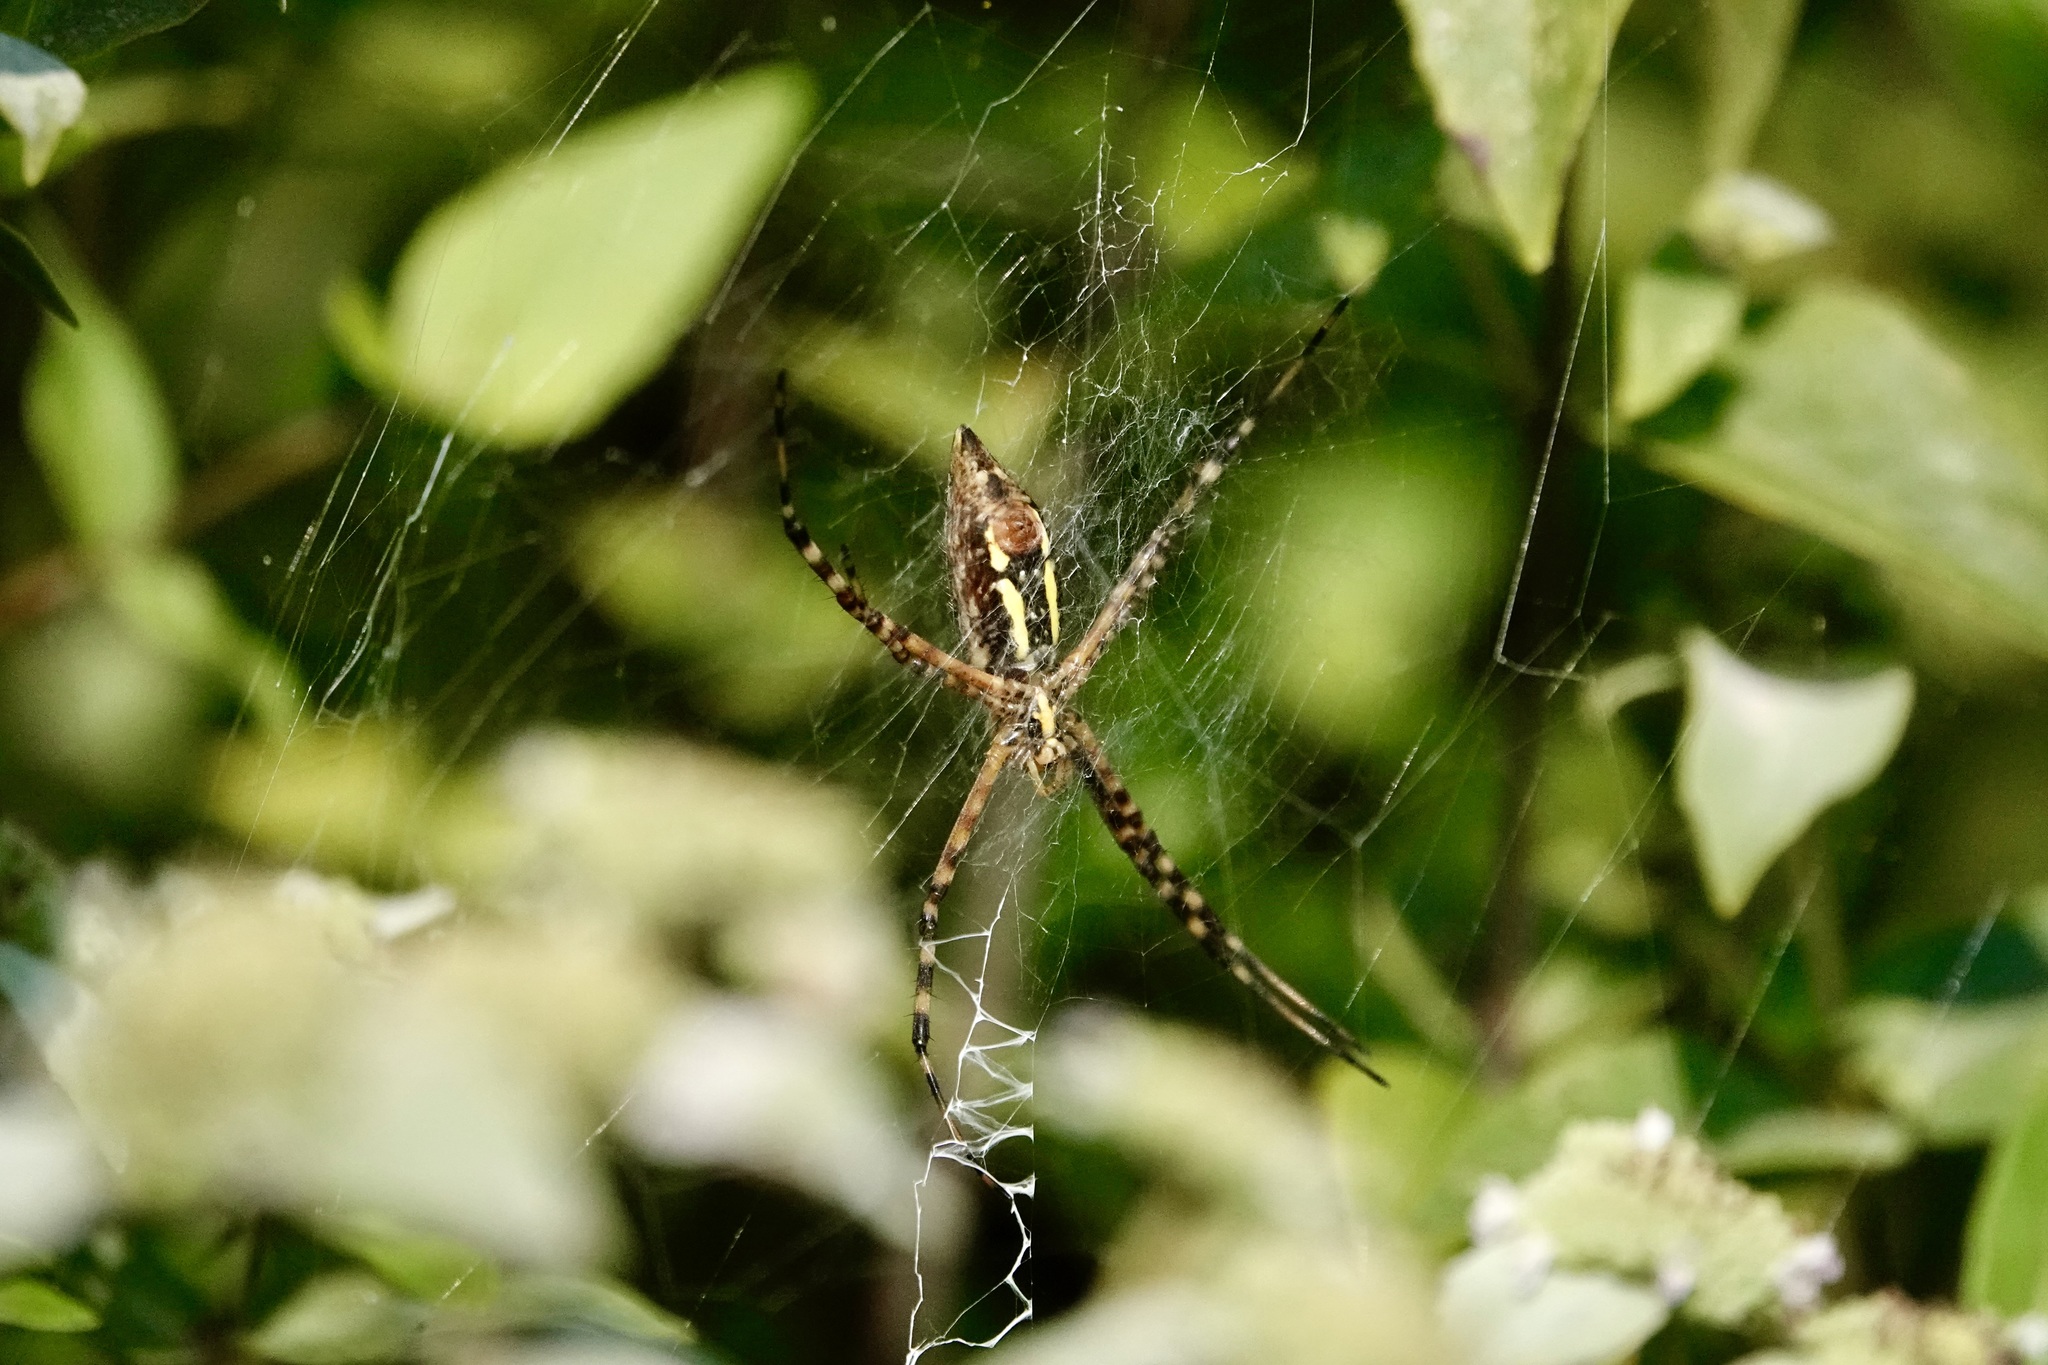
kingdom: Animalia
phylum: Arthropoda
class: Arachnida
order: Araneae
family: Araneidae
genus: Argiope
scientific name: Argiope trifasciata
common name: Banded garden spider
